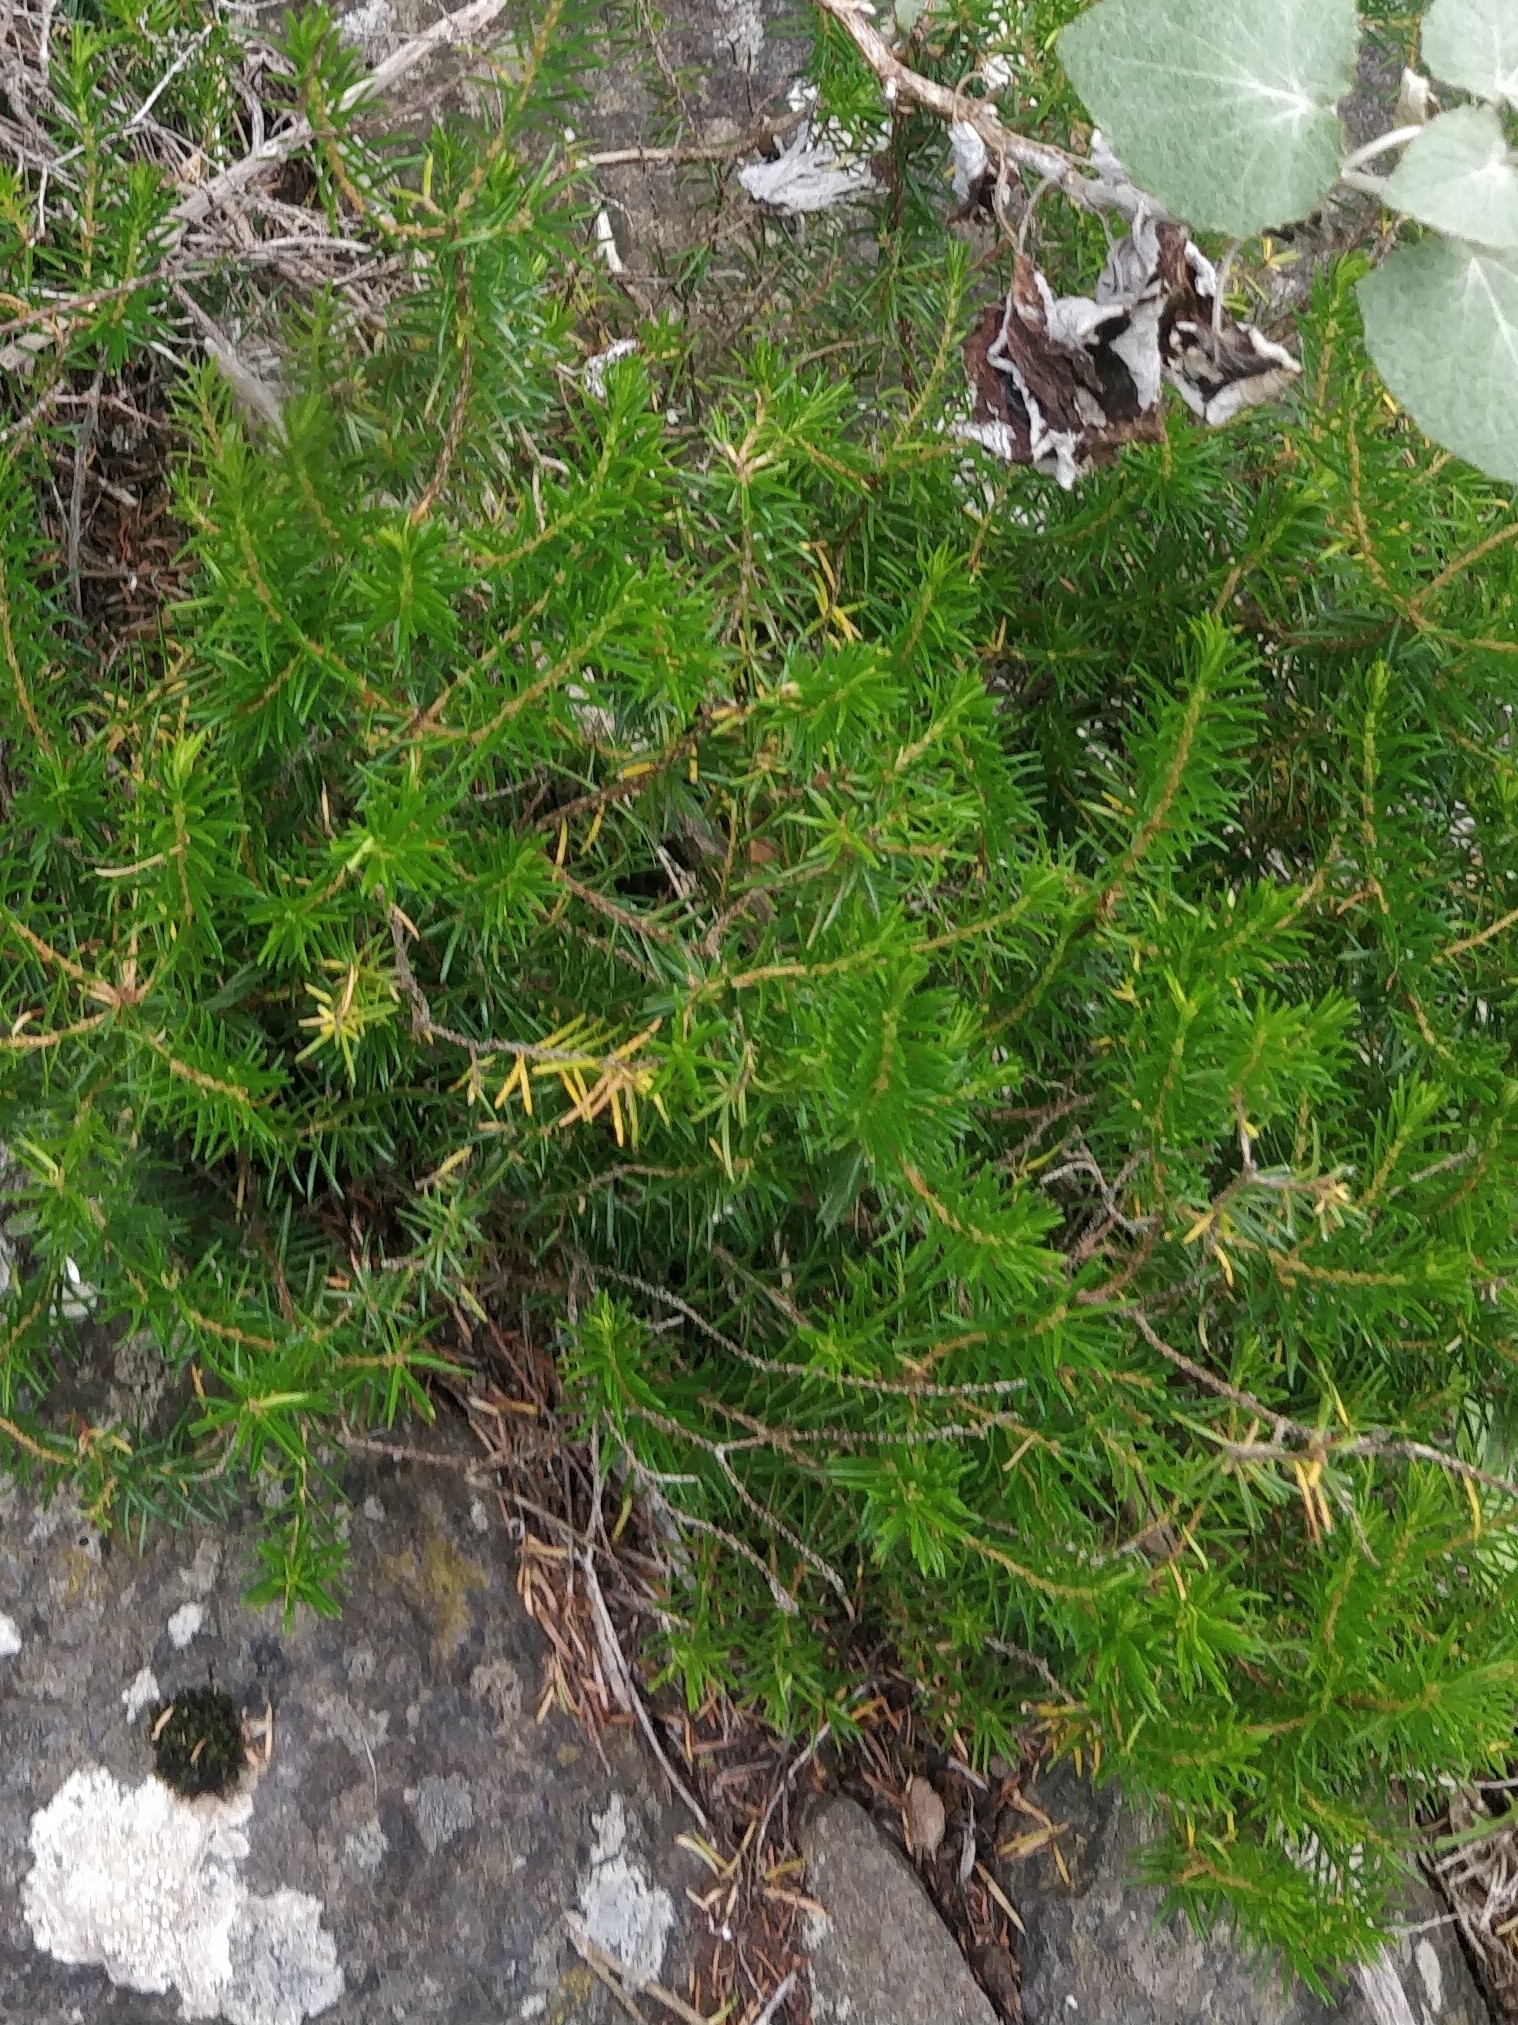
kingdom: Plantae
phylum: Tracheophyta
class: Magnoliopsida
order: Ericales
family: Ericaceae
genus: Erica
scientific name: Erica platycodon
